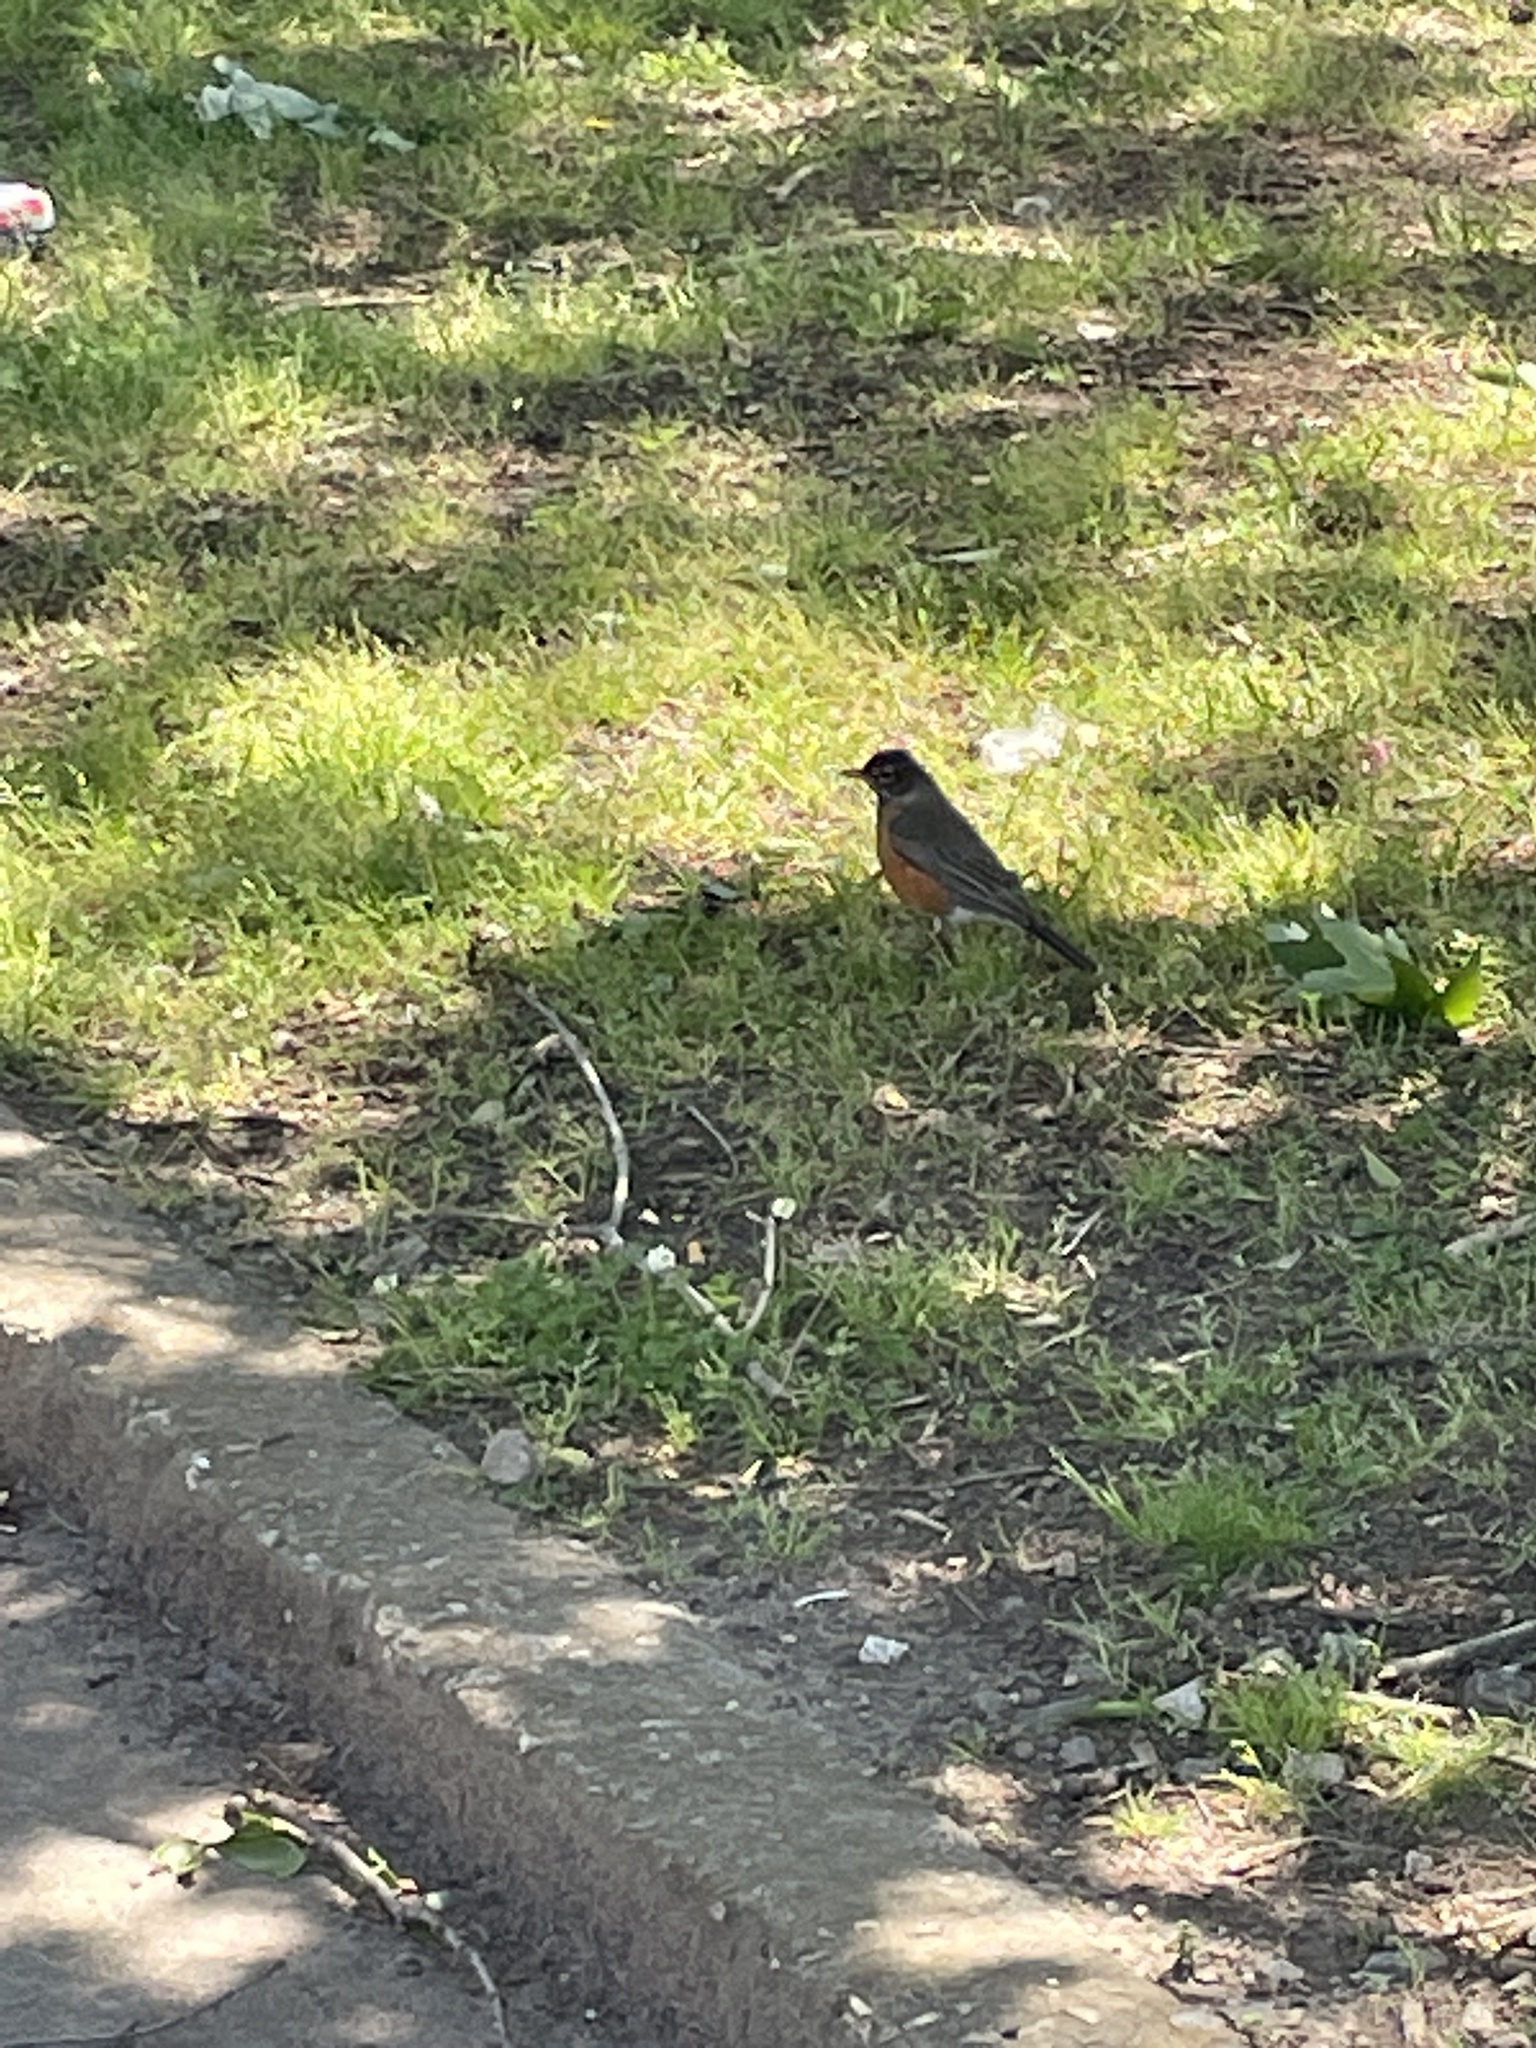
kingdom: Animalia
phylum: Chordata
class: Aves
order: Passeriformes
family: Turdidae
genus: Turdus
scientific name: Turdus migratorius
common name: American robin
